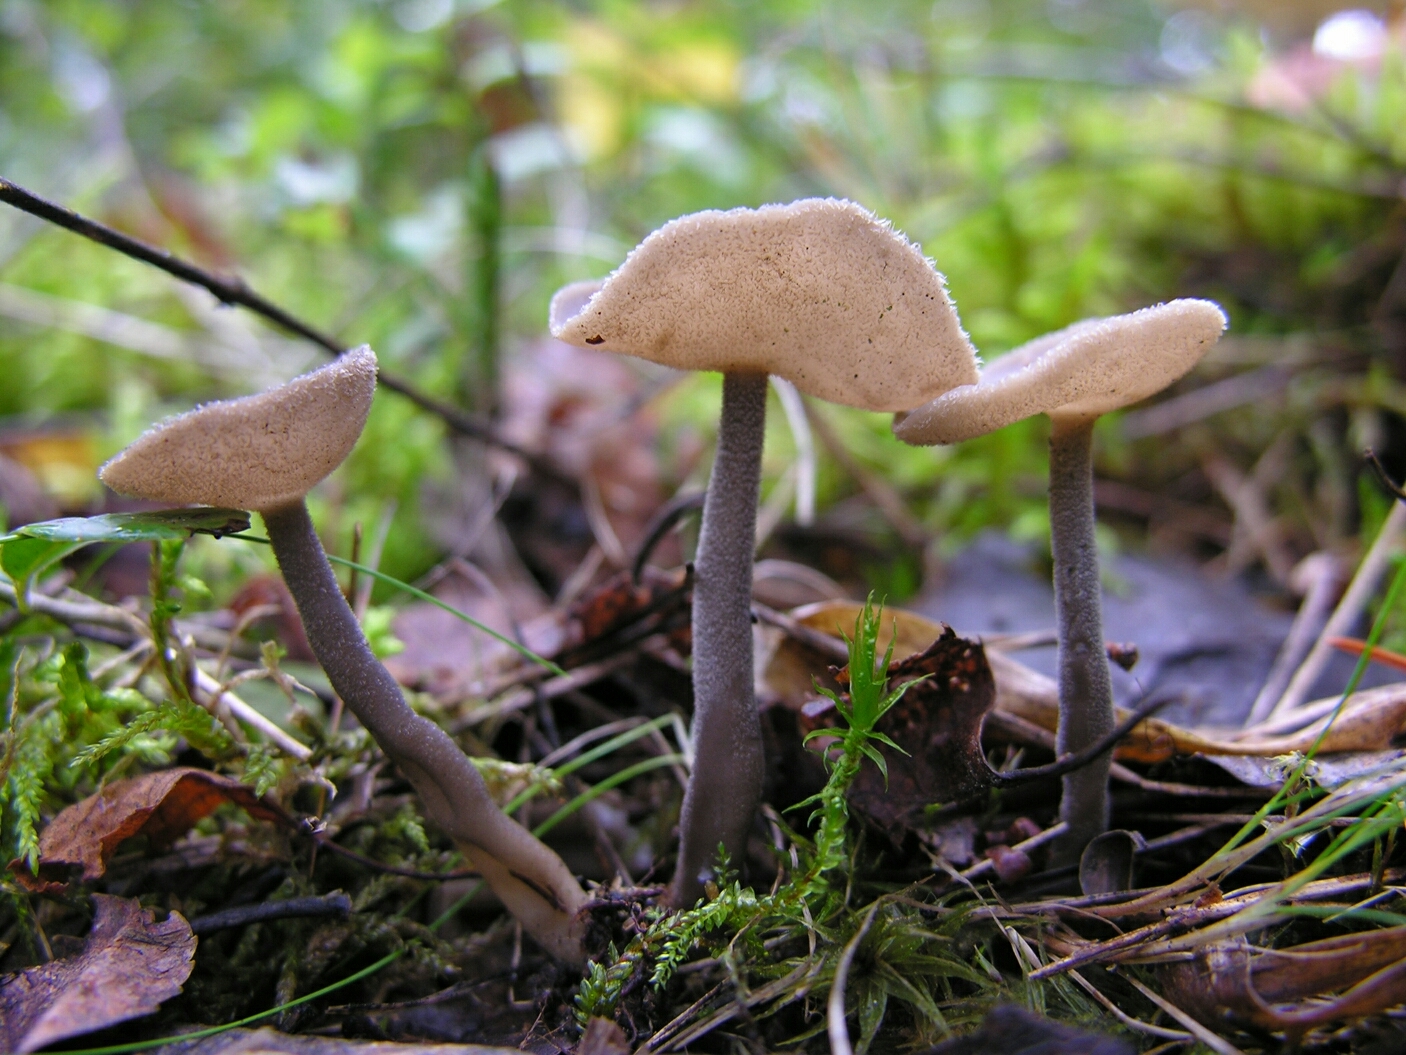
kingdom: Fungi
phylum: Ascomycota
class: Pezizomycetes
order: Pezizales
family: Helvellaceae
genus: Helvella
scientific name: Helvella macropus
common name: Felt saddle
